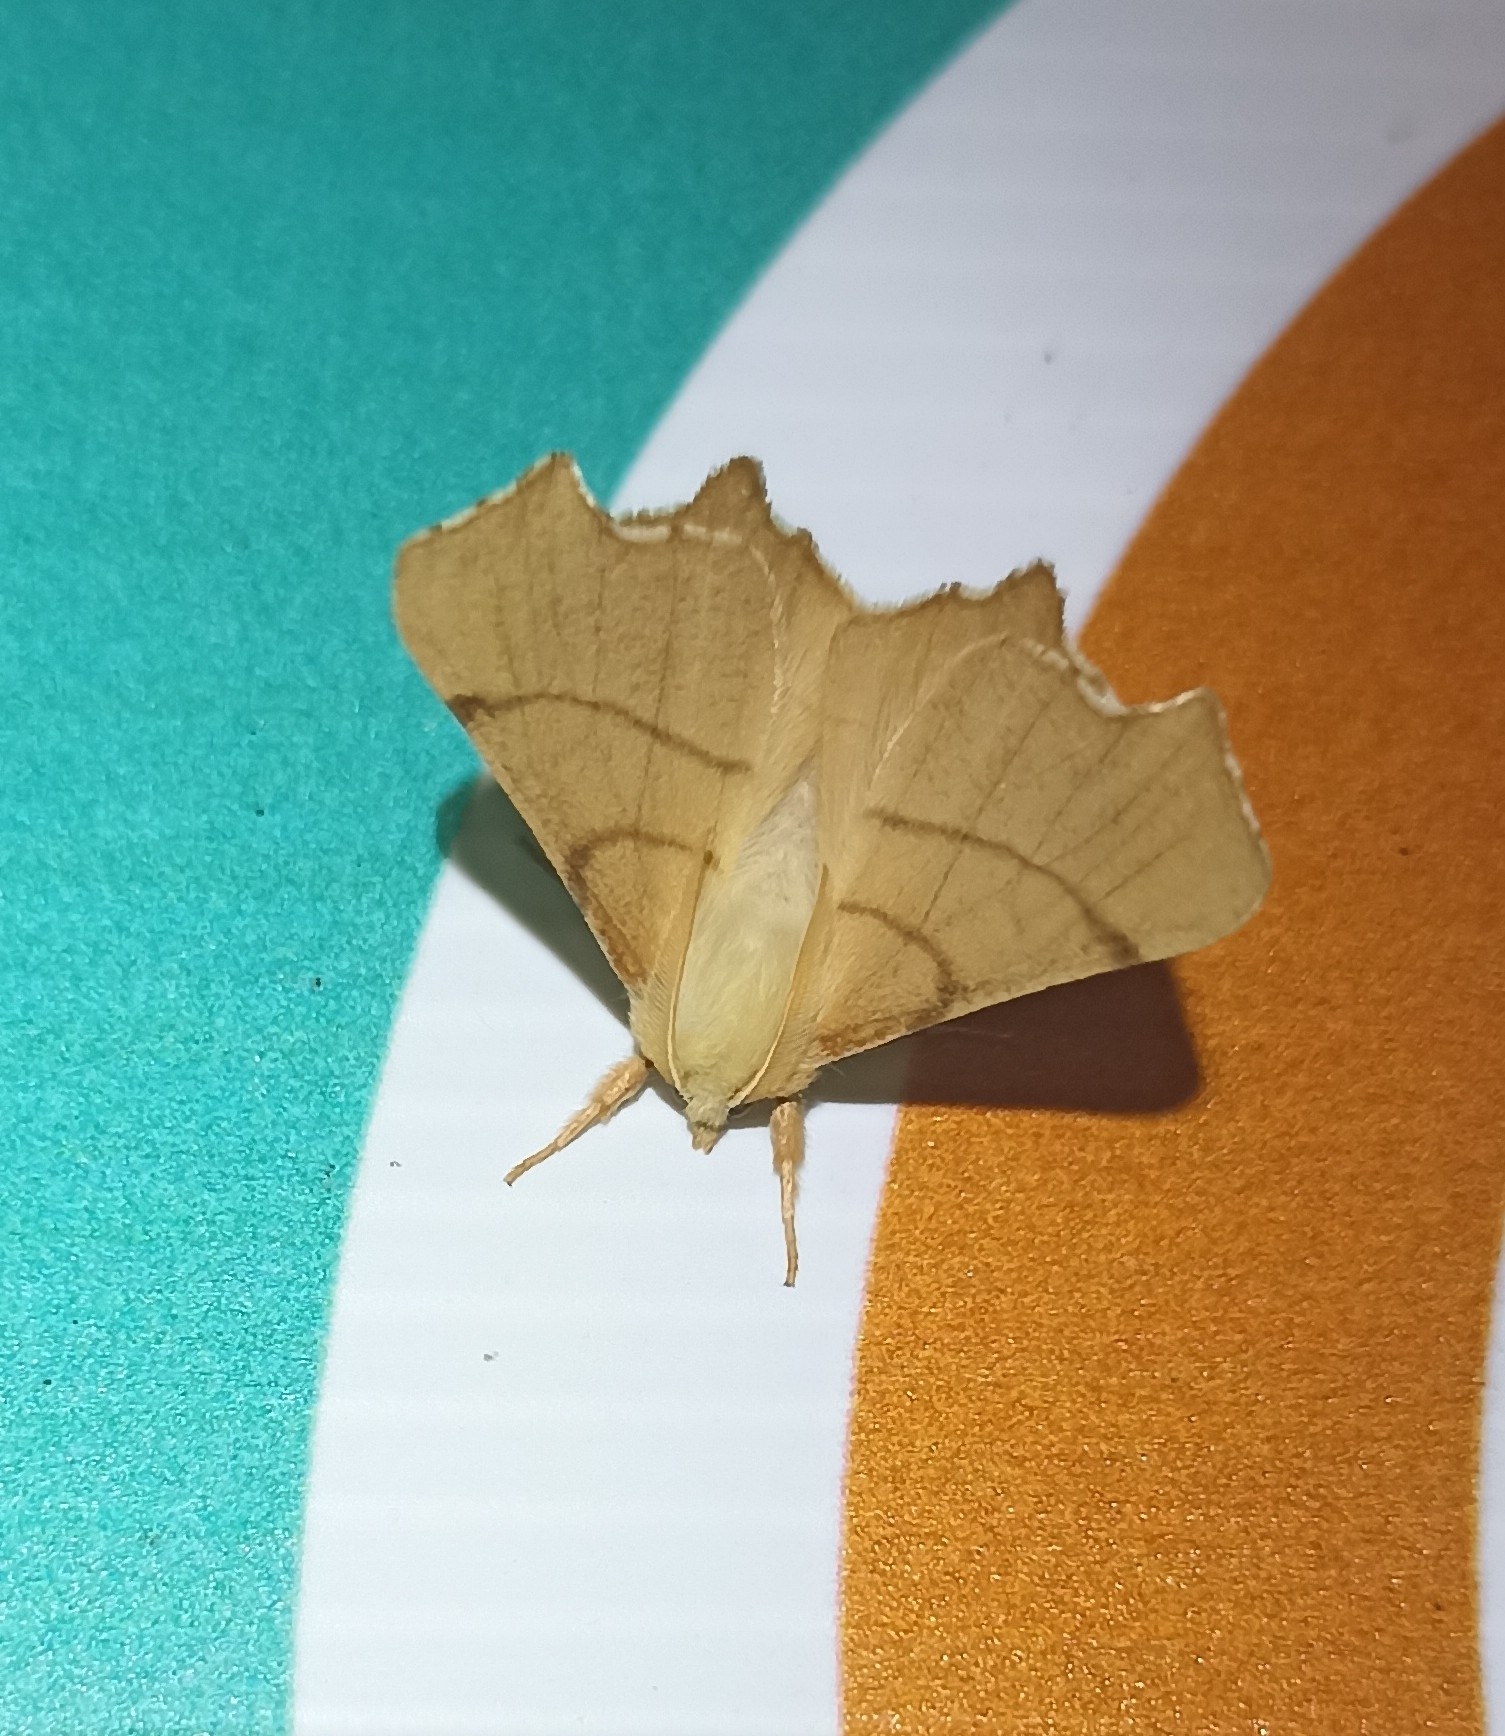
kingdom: Animalia
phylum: Arthropoda
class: Insecta
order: Lepidoptera
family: Geometridae
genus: Ennomos
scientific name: Ennomos erosaria
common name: September thorn
